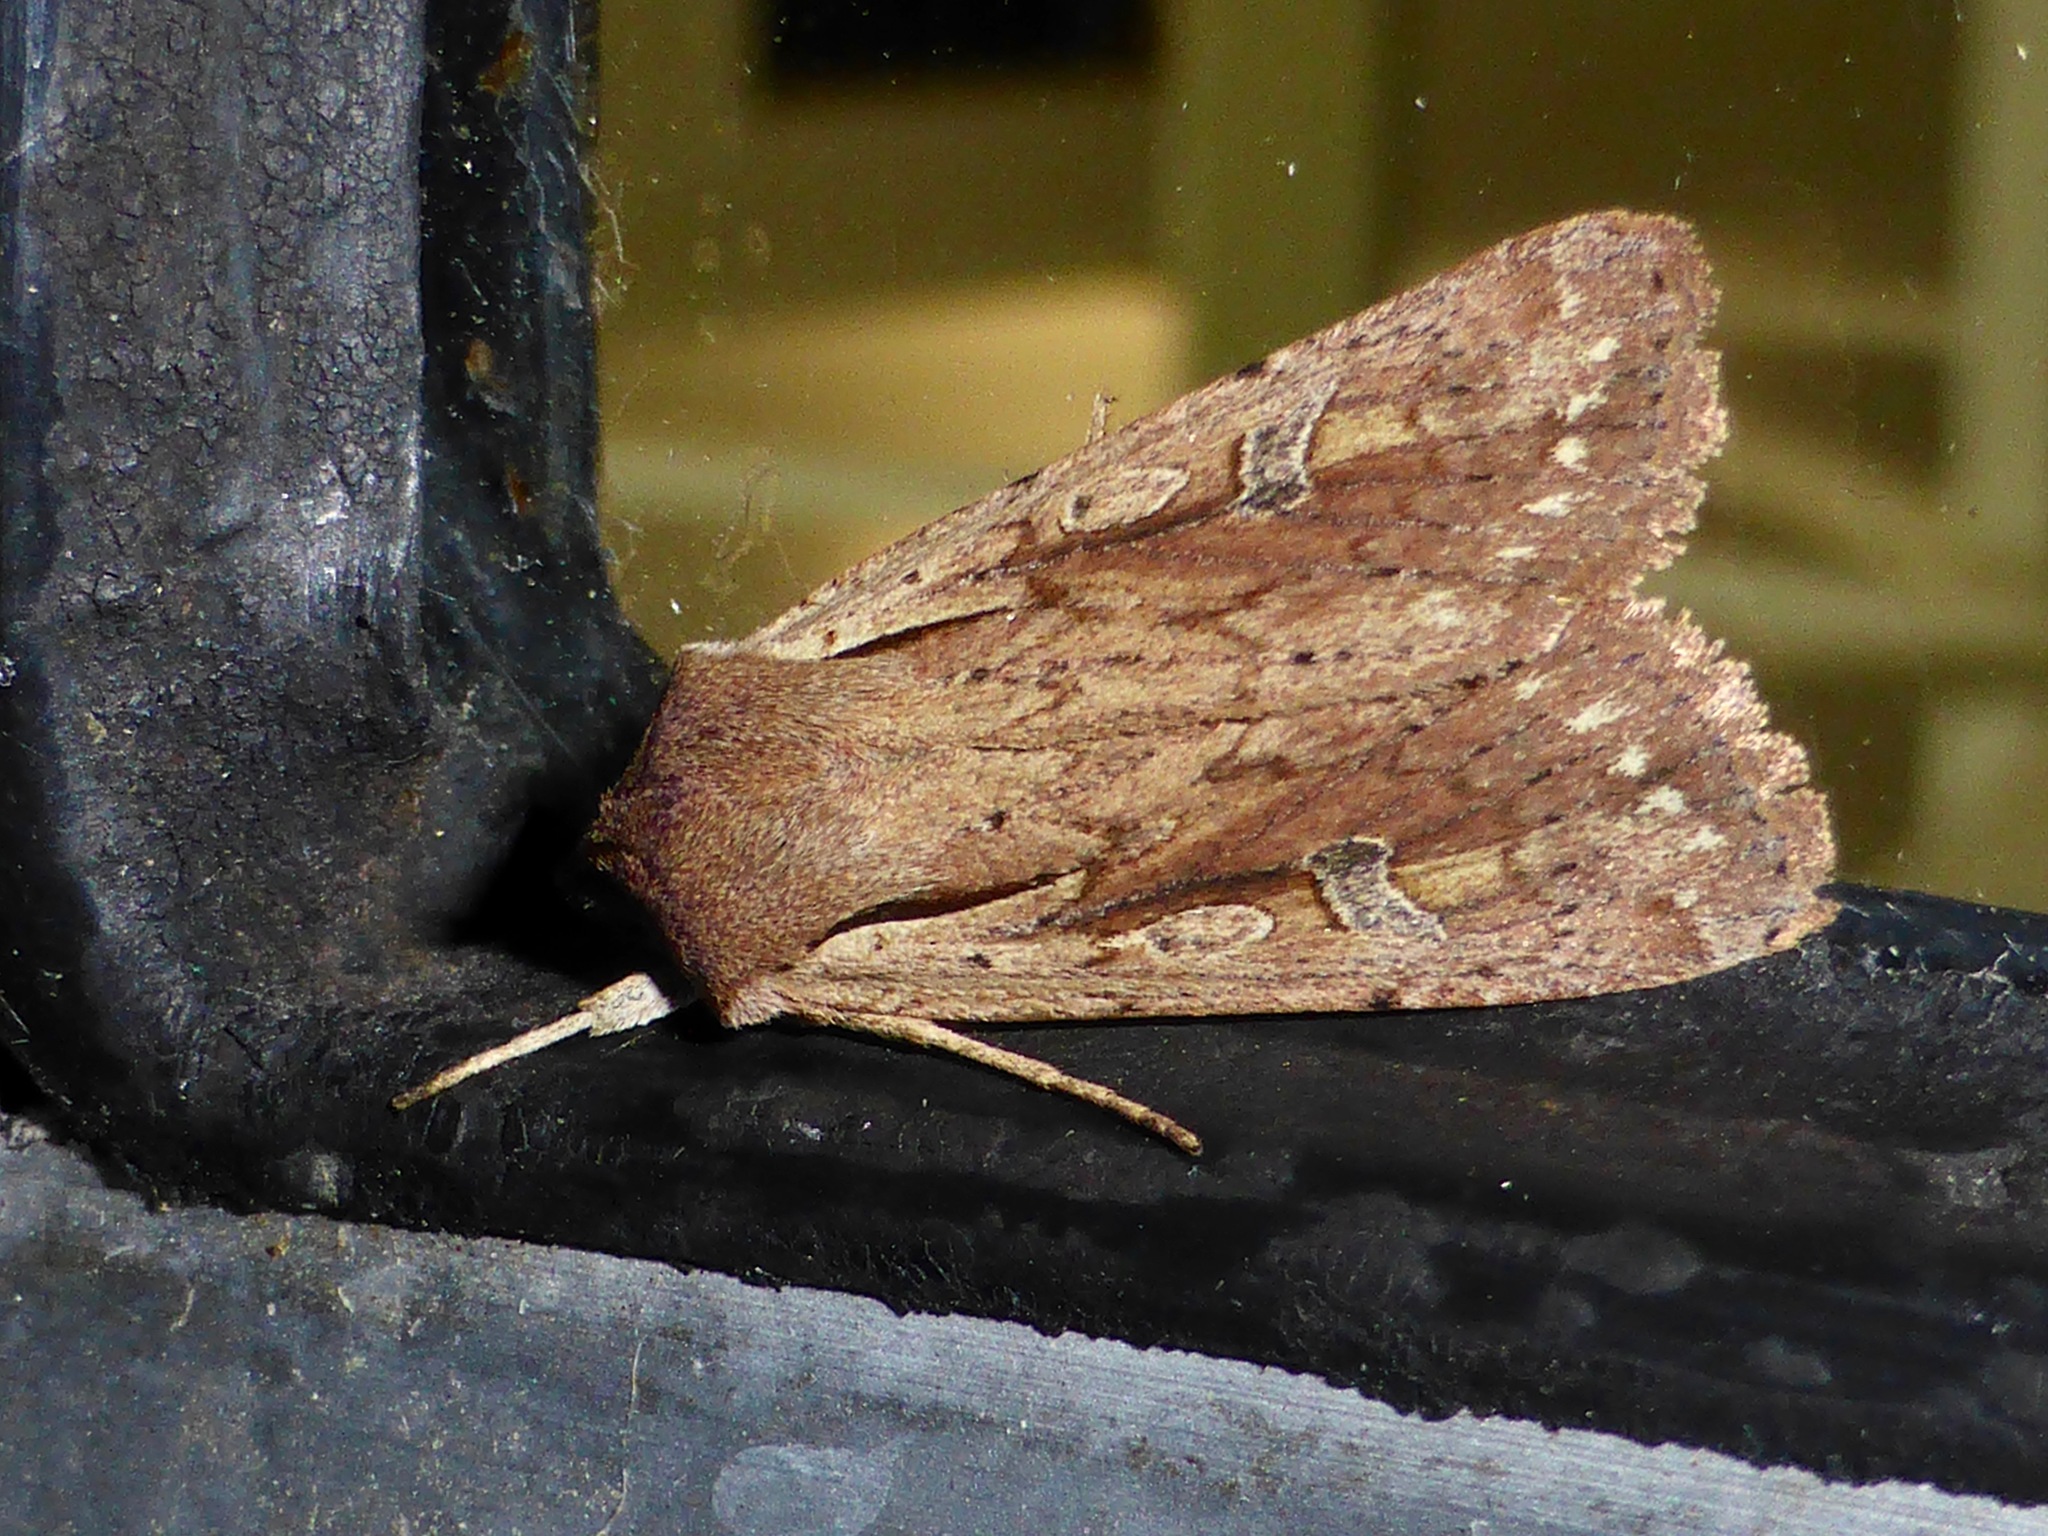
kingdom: Animalia
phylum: Arthropoda
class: Insecta
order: Lepidoptera
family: Noctuidae
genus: Ichneutica
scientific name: Ichneutica atristriga
